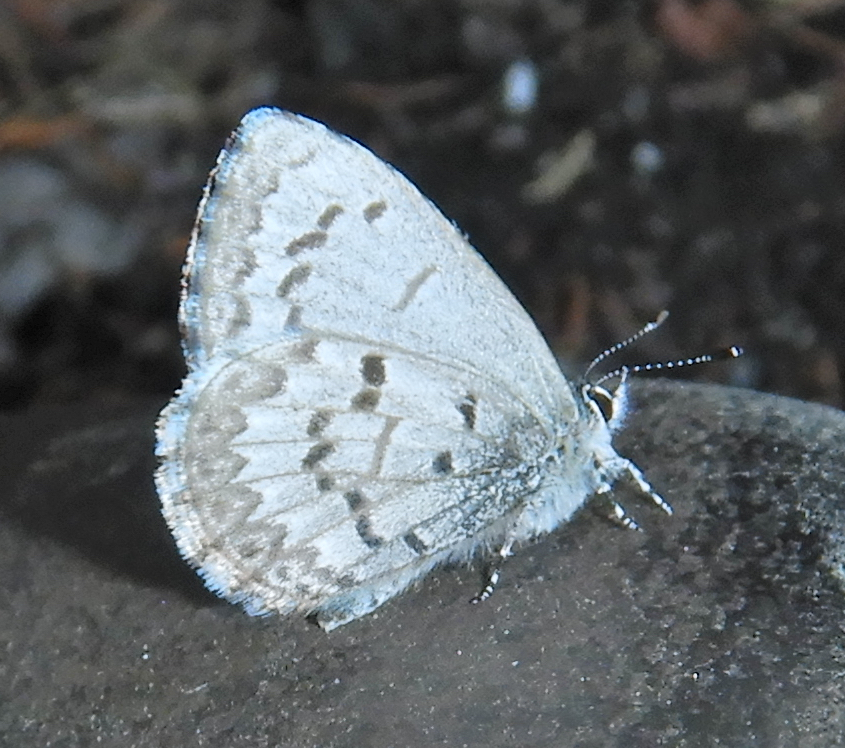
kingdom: Animalia
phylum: Arthropoda
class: Insecta
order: Lepidoptera
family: Lycaenidae
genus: Celastrina
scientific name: Celastrina lucia
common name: Lucia azure
